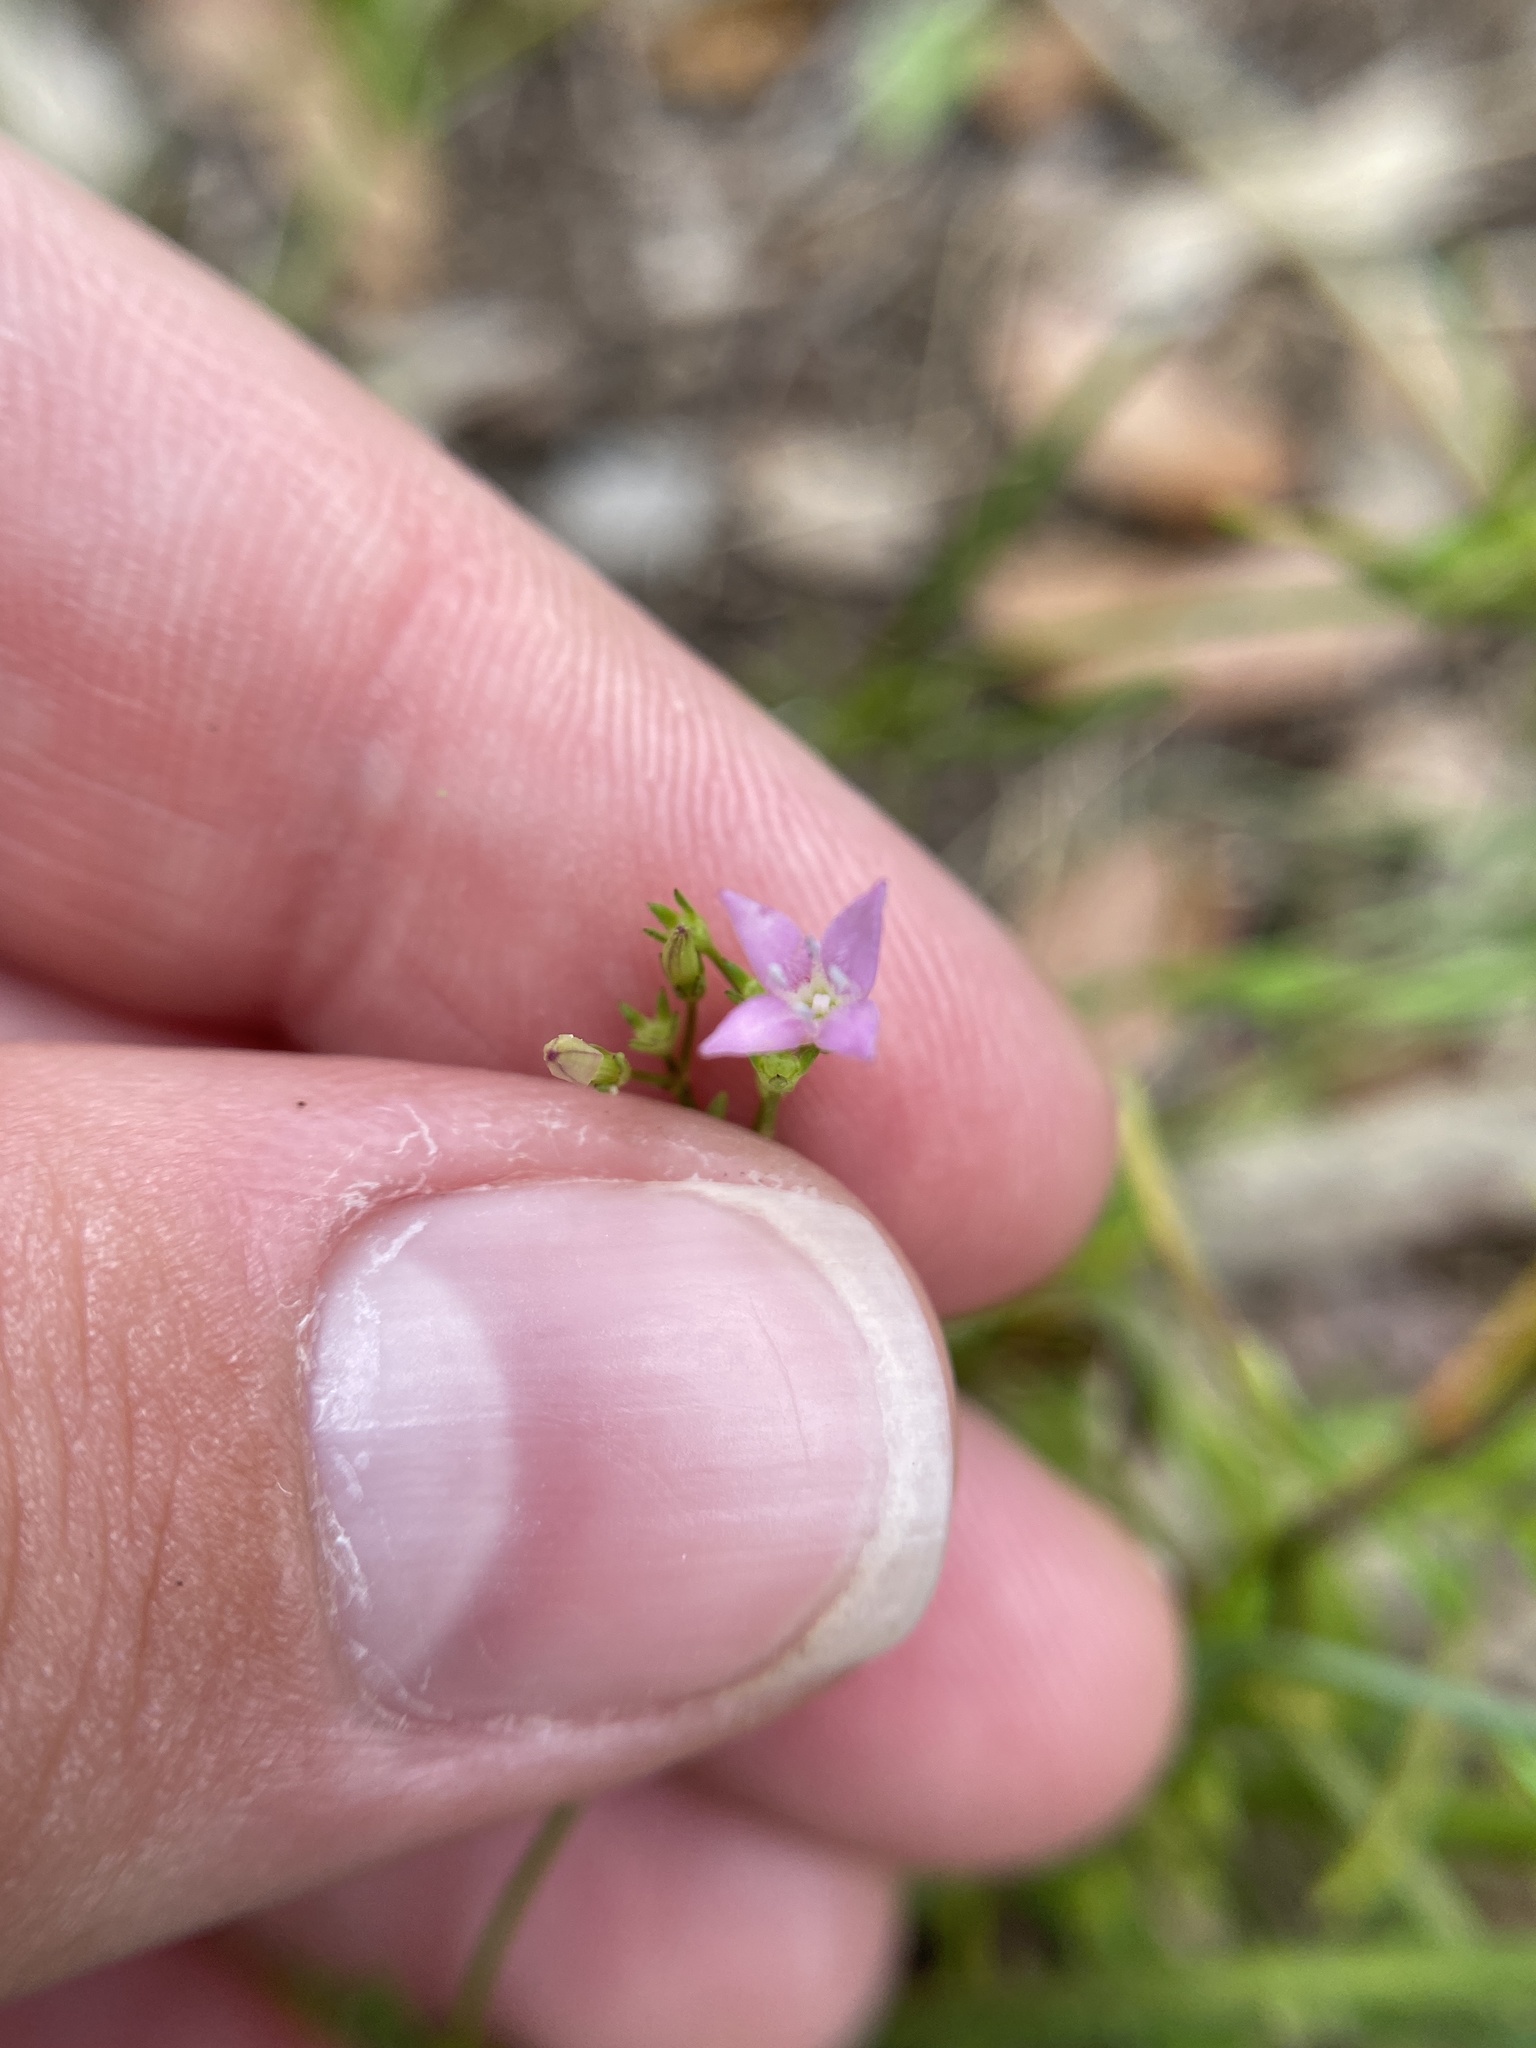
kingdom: Plantae
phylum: Tracheophyta
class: Magnoliopsida
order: Gentianales
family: Rubiaceae
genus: Stenaria
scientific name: Stenaria nigricans
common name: Diamondflowers
